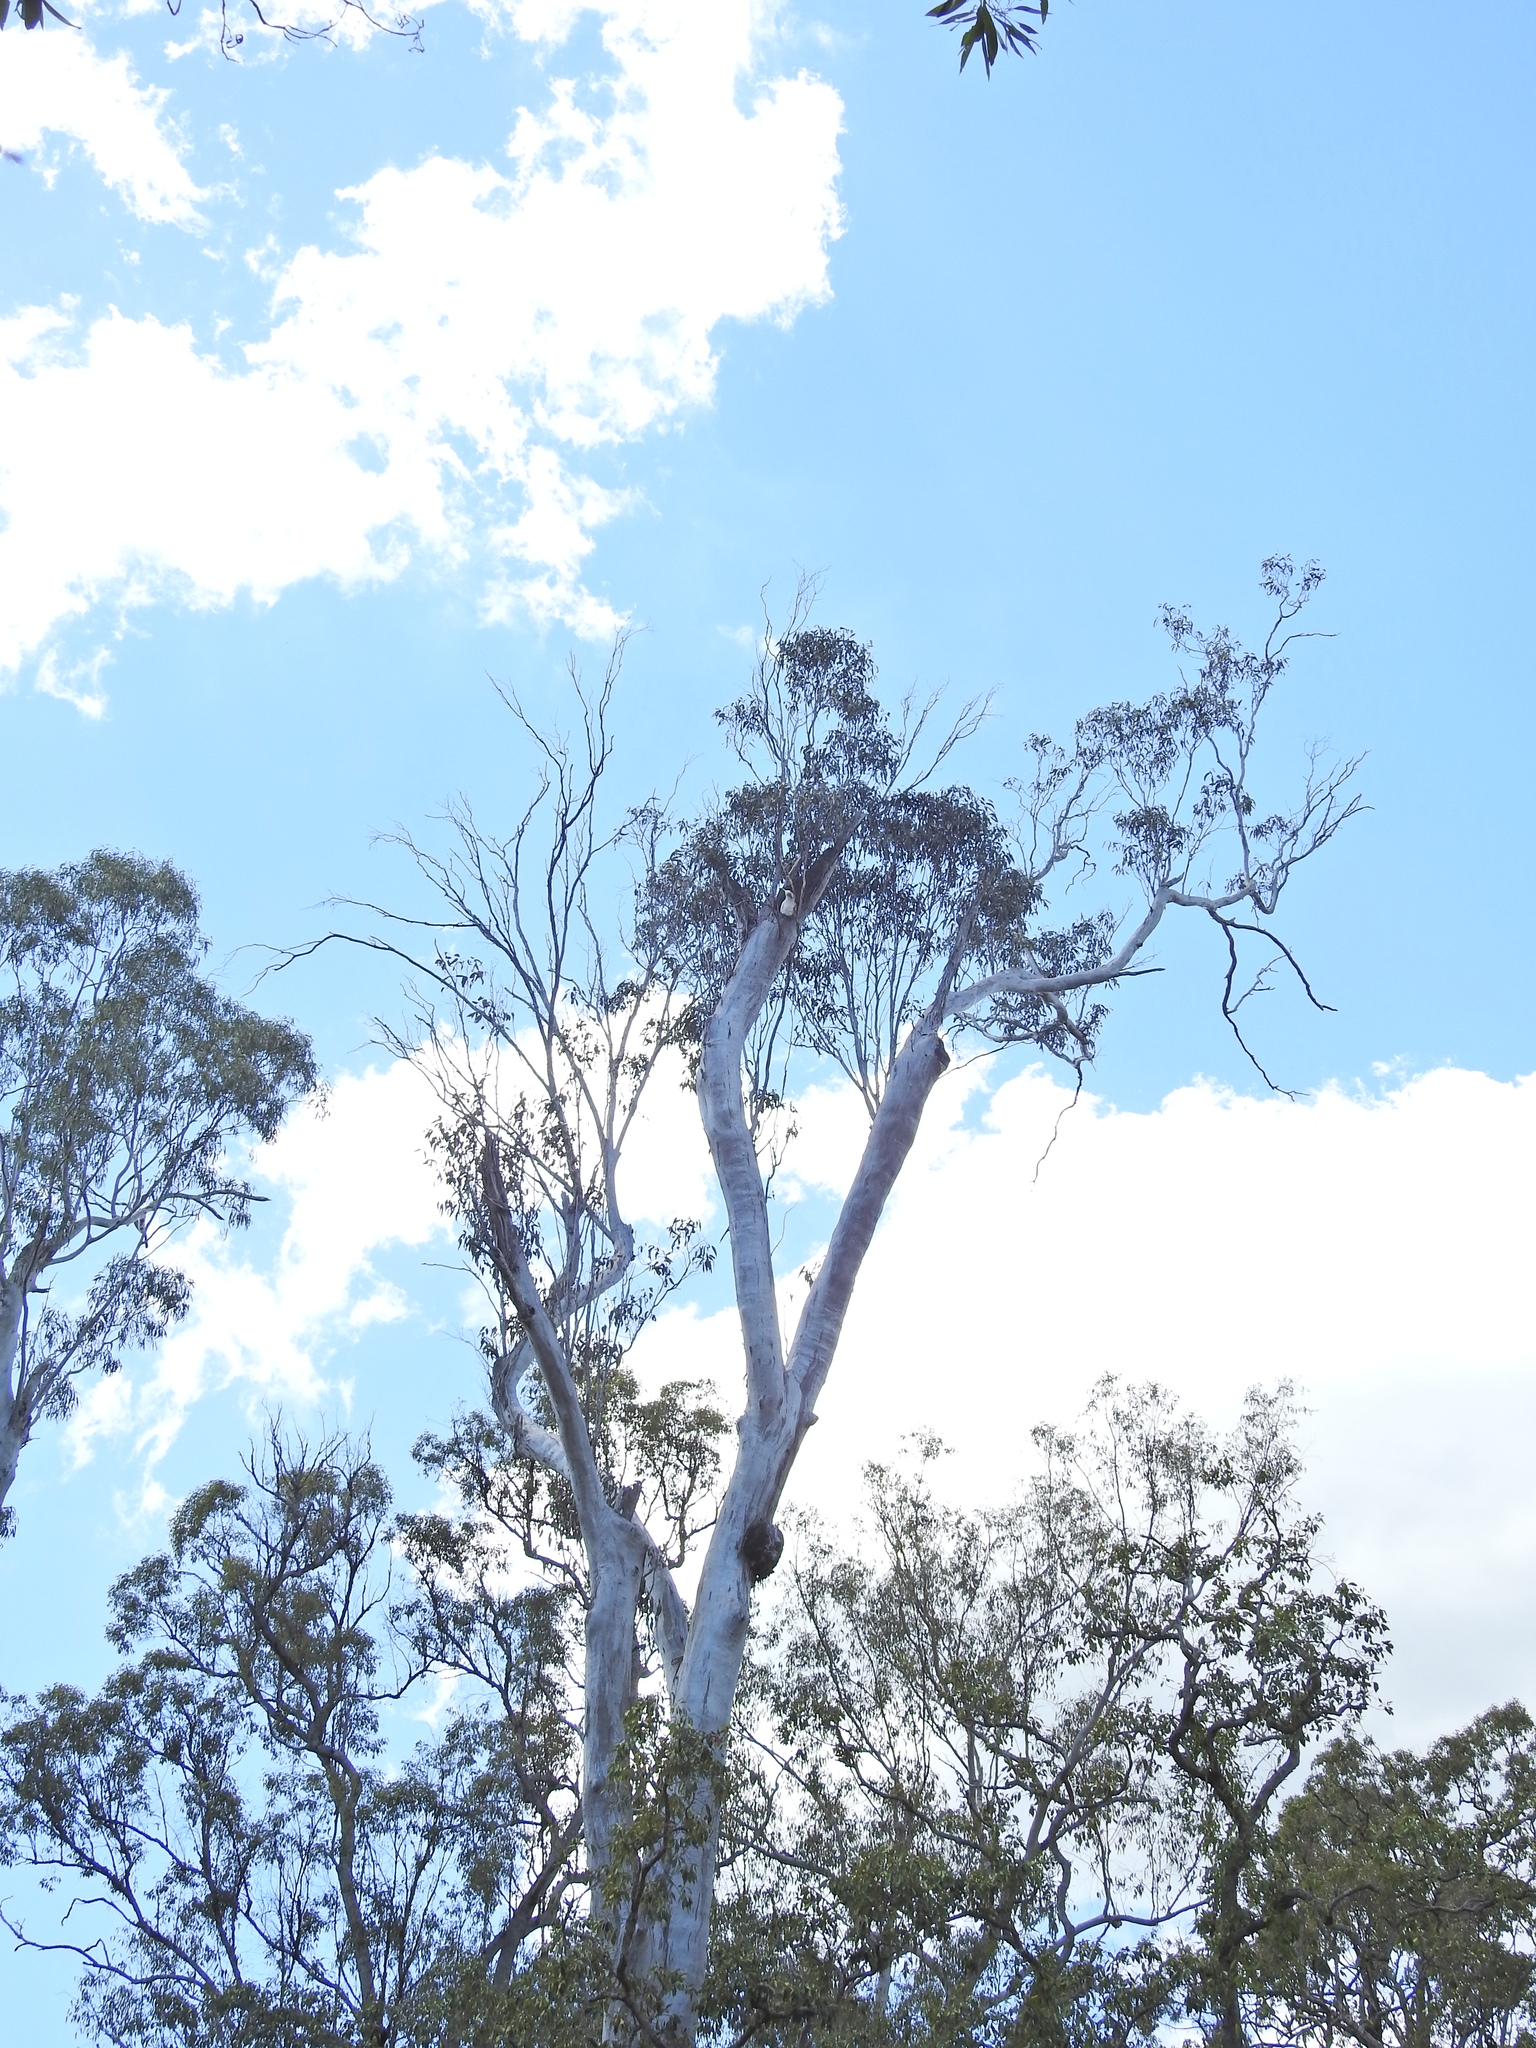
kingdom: Animalia
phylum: Chordata
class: Aves
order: Psittaciformes
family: Psittacidae
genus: Cacatua
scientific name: Cacatua galerita
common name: Sulphur-crested cockatoo
